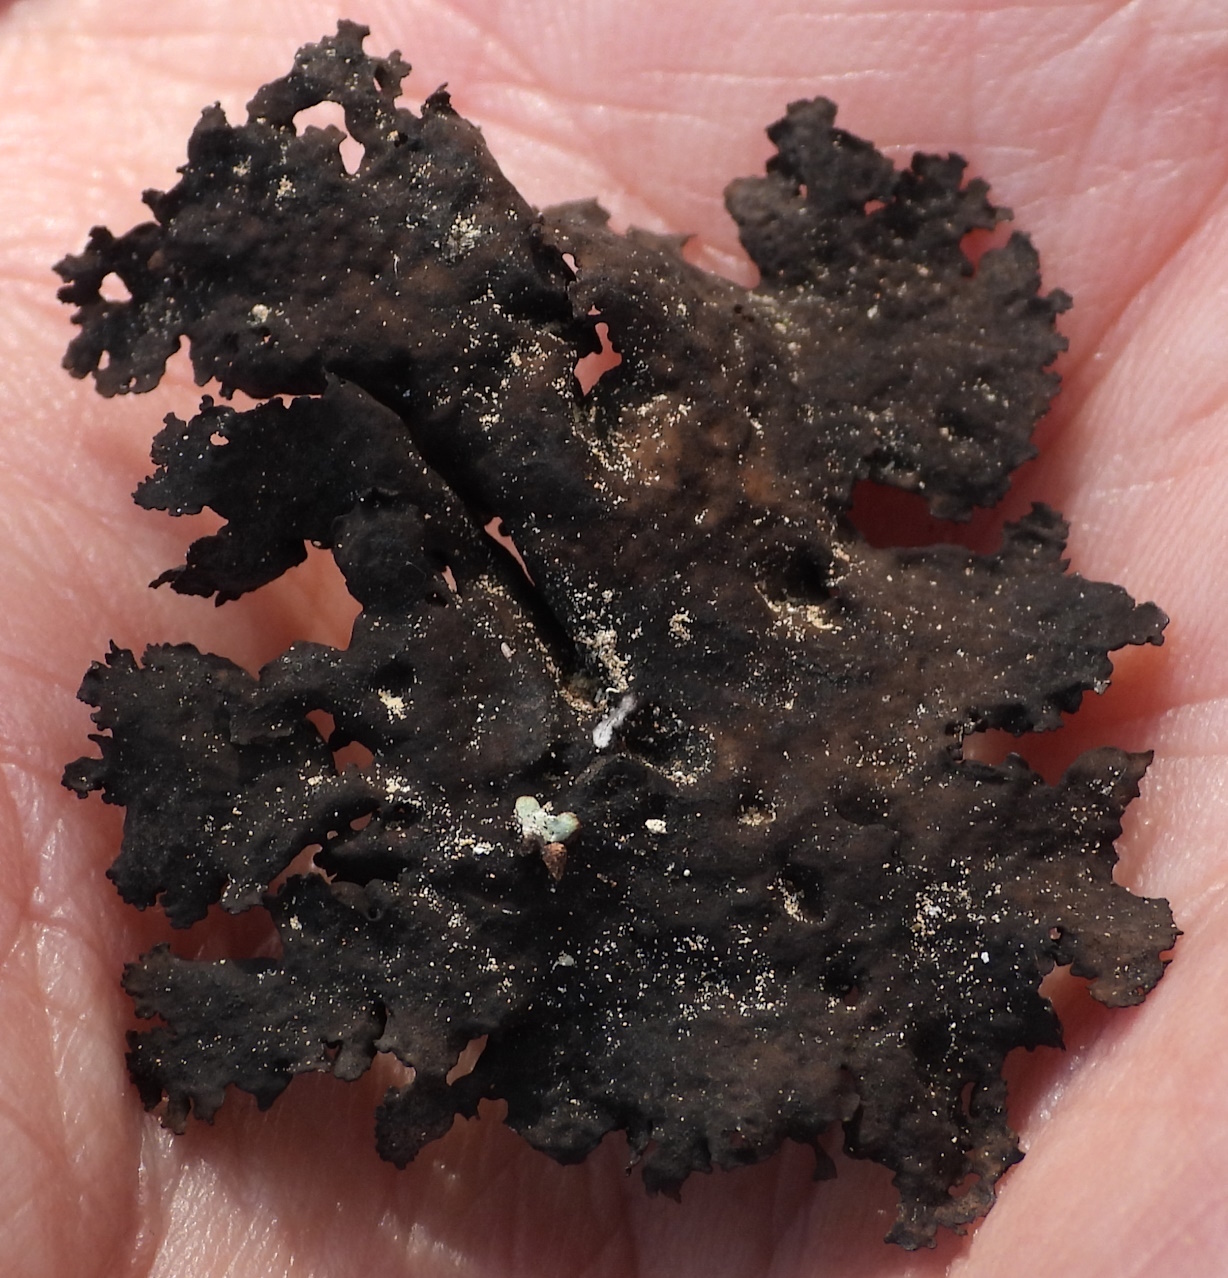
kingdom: Fungi
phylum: Ascomycota
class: Lecanoromycetes
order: Umbilicariales
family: Umbilicariaceae
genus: Umbilicaria
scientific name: Umbilicaria torrefacta
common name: Punctured rock tripe lichen
